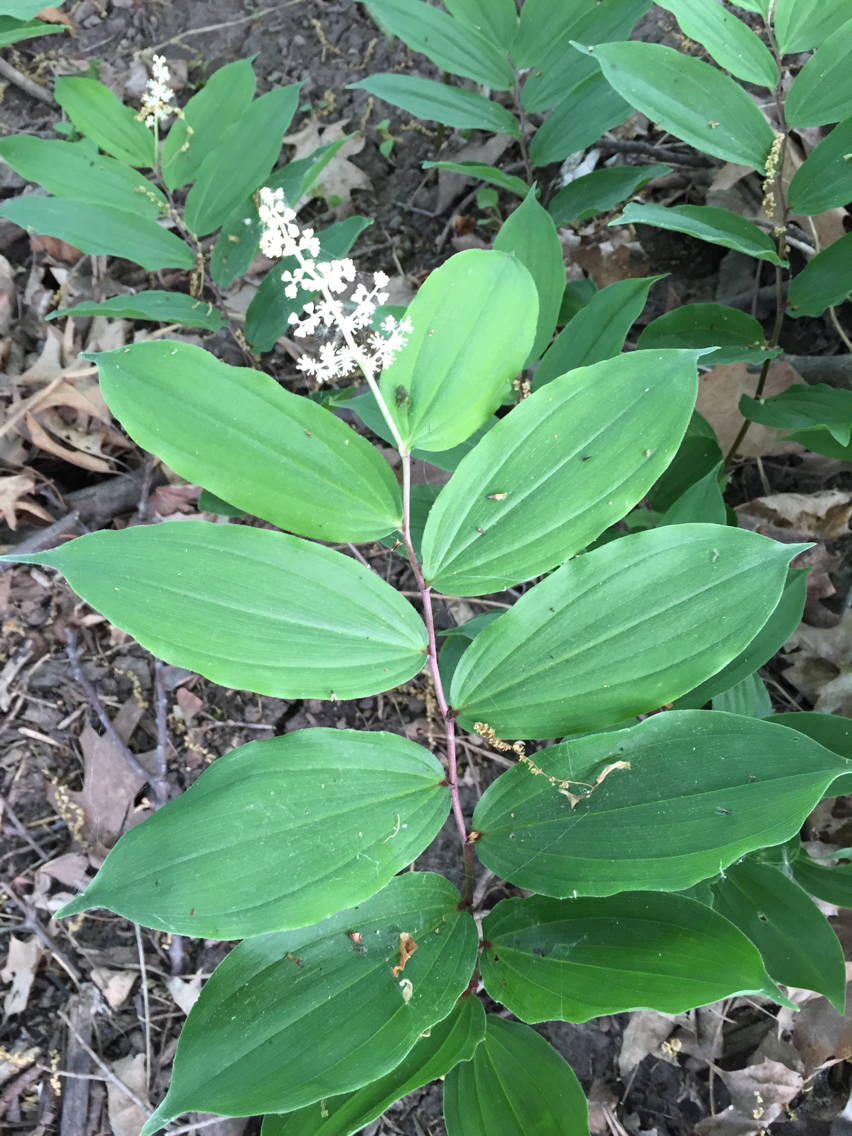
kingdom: Plantae
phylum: Tracheophyta
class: Liliopsida
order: Asparagales
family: Asparagaceae
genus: Maianthemum
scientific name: Maianthemum racemosum
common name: False spikenard
